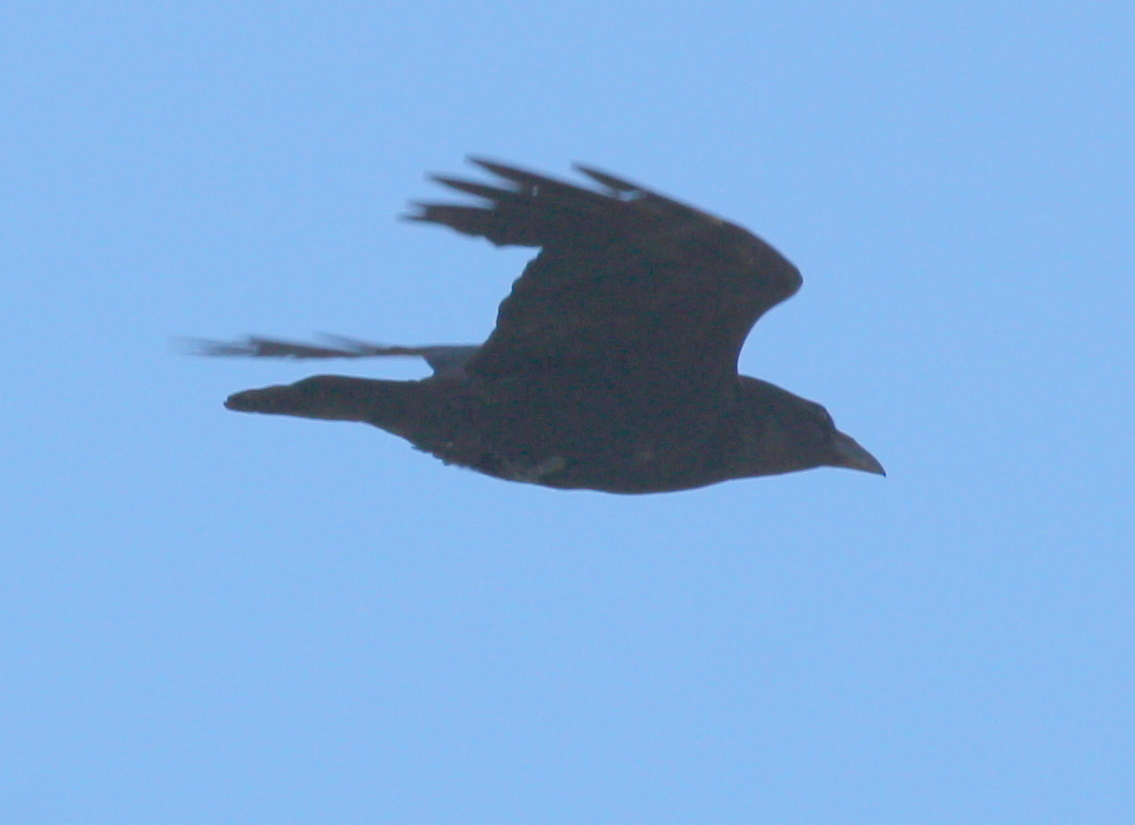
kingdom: Animalia
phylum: Chordata
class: Aves
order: Passeriformes
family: Corvidae
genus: Corvus
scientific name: Corvus corax
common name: Common raven
